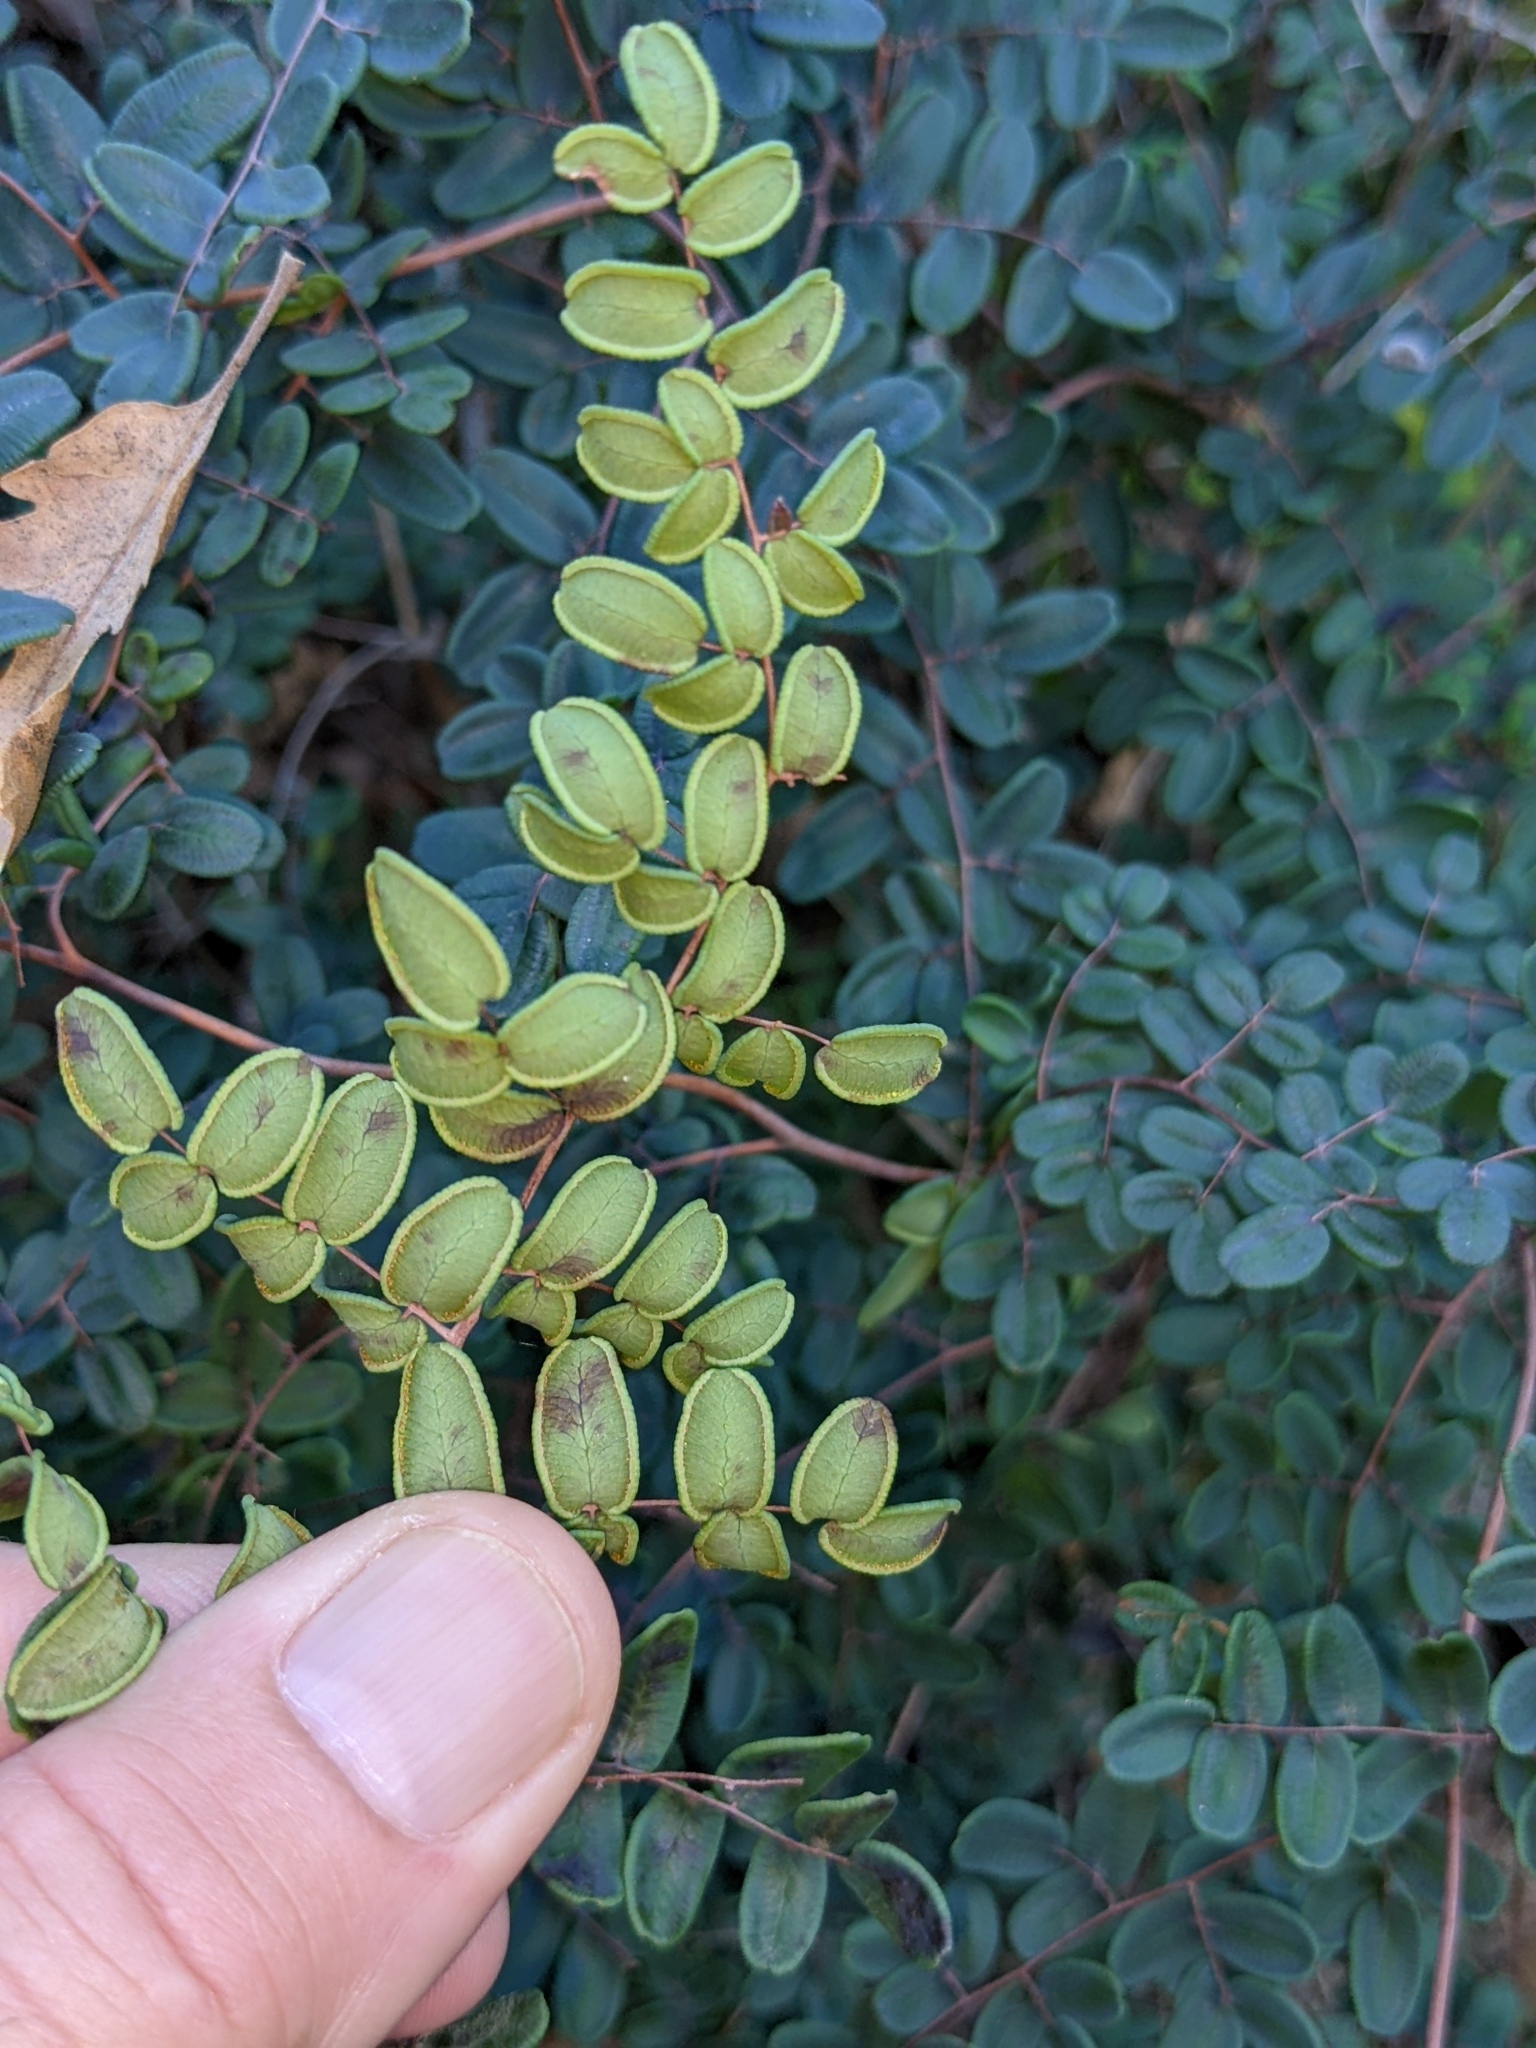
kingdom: Plantae
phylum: Tracheophyta
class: Polypodiopsida
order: Polypodiales
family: Pteridaceae
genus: Pellaea
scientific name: Pellaea andromedifolia
